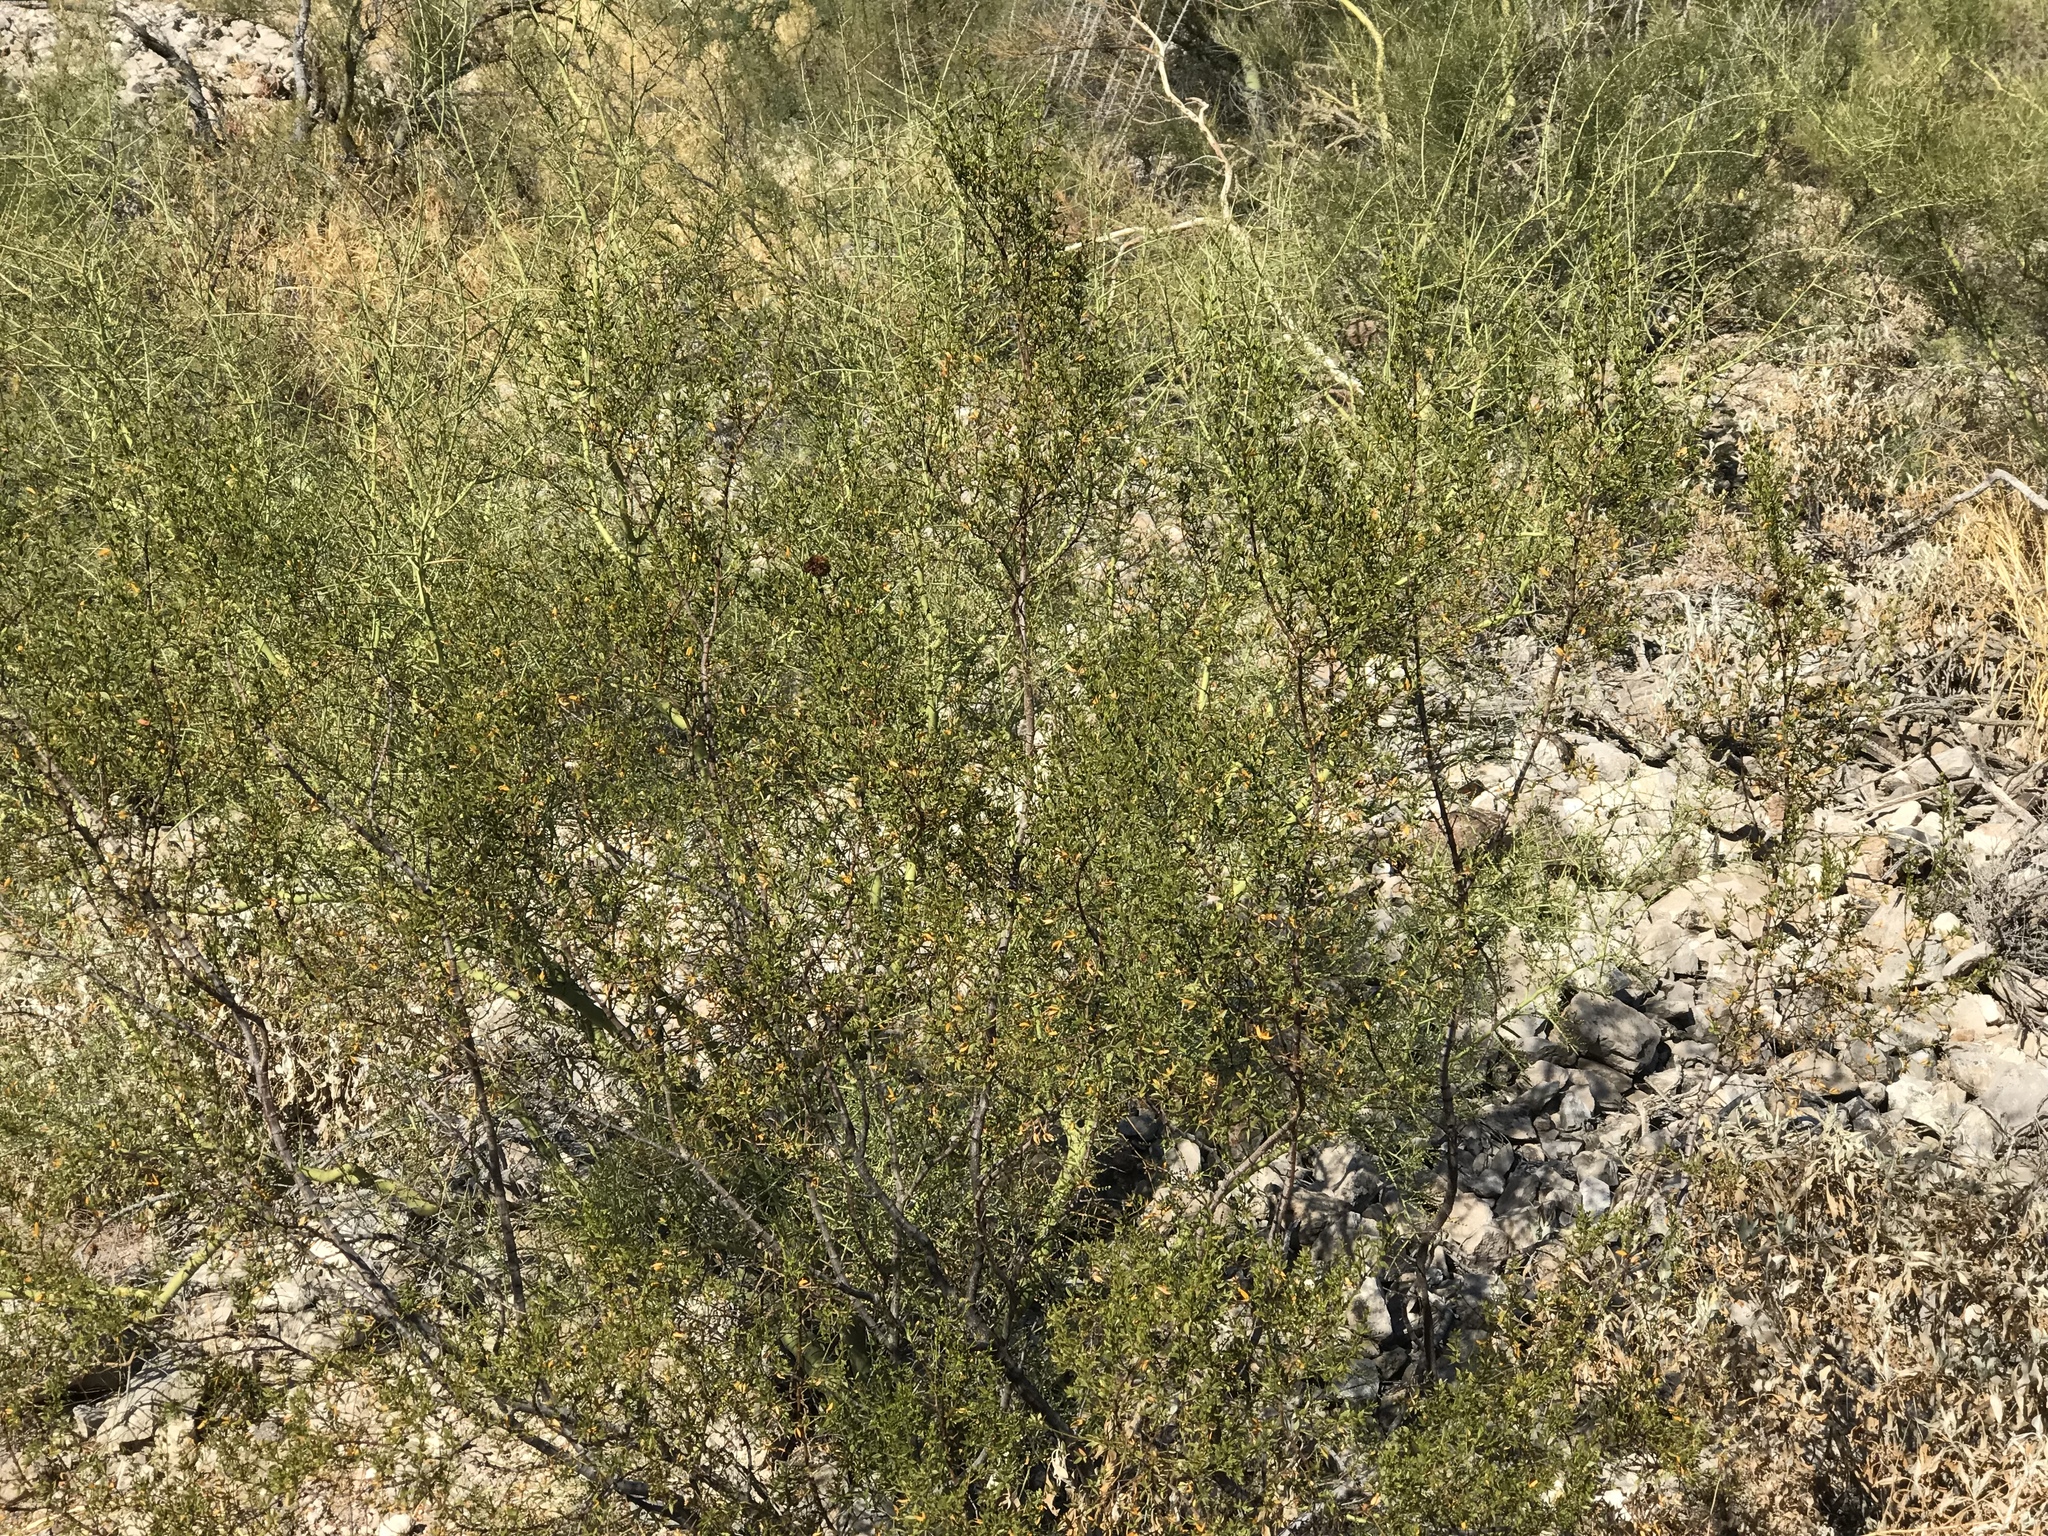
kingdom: Plantae
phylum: Tracheophyta
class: Magnoliopsida
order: Zygophyllales
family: Zygophyllaceae
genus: Larrea
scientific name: Larrea tridentata
